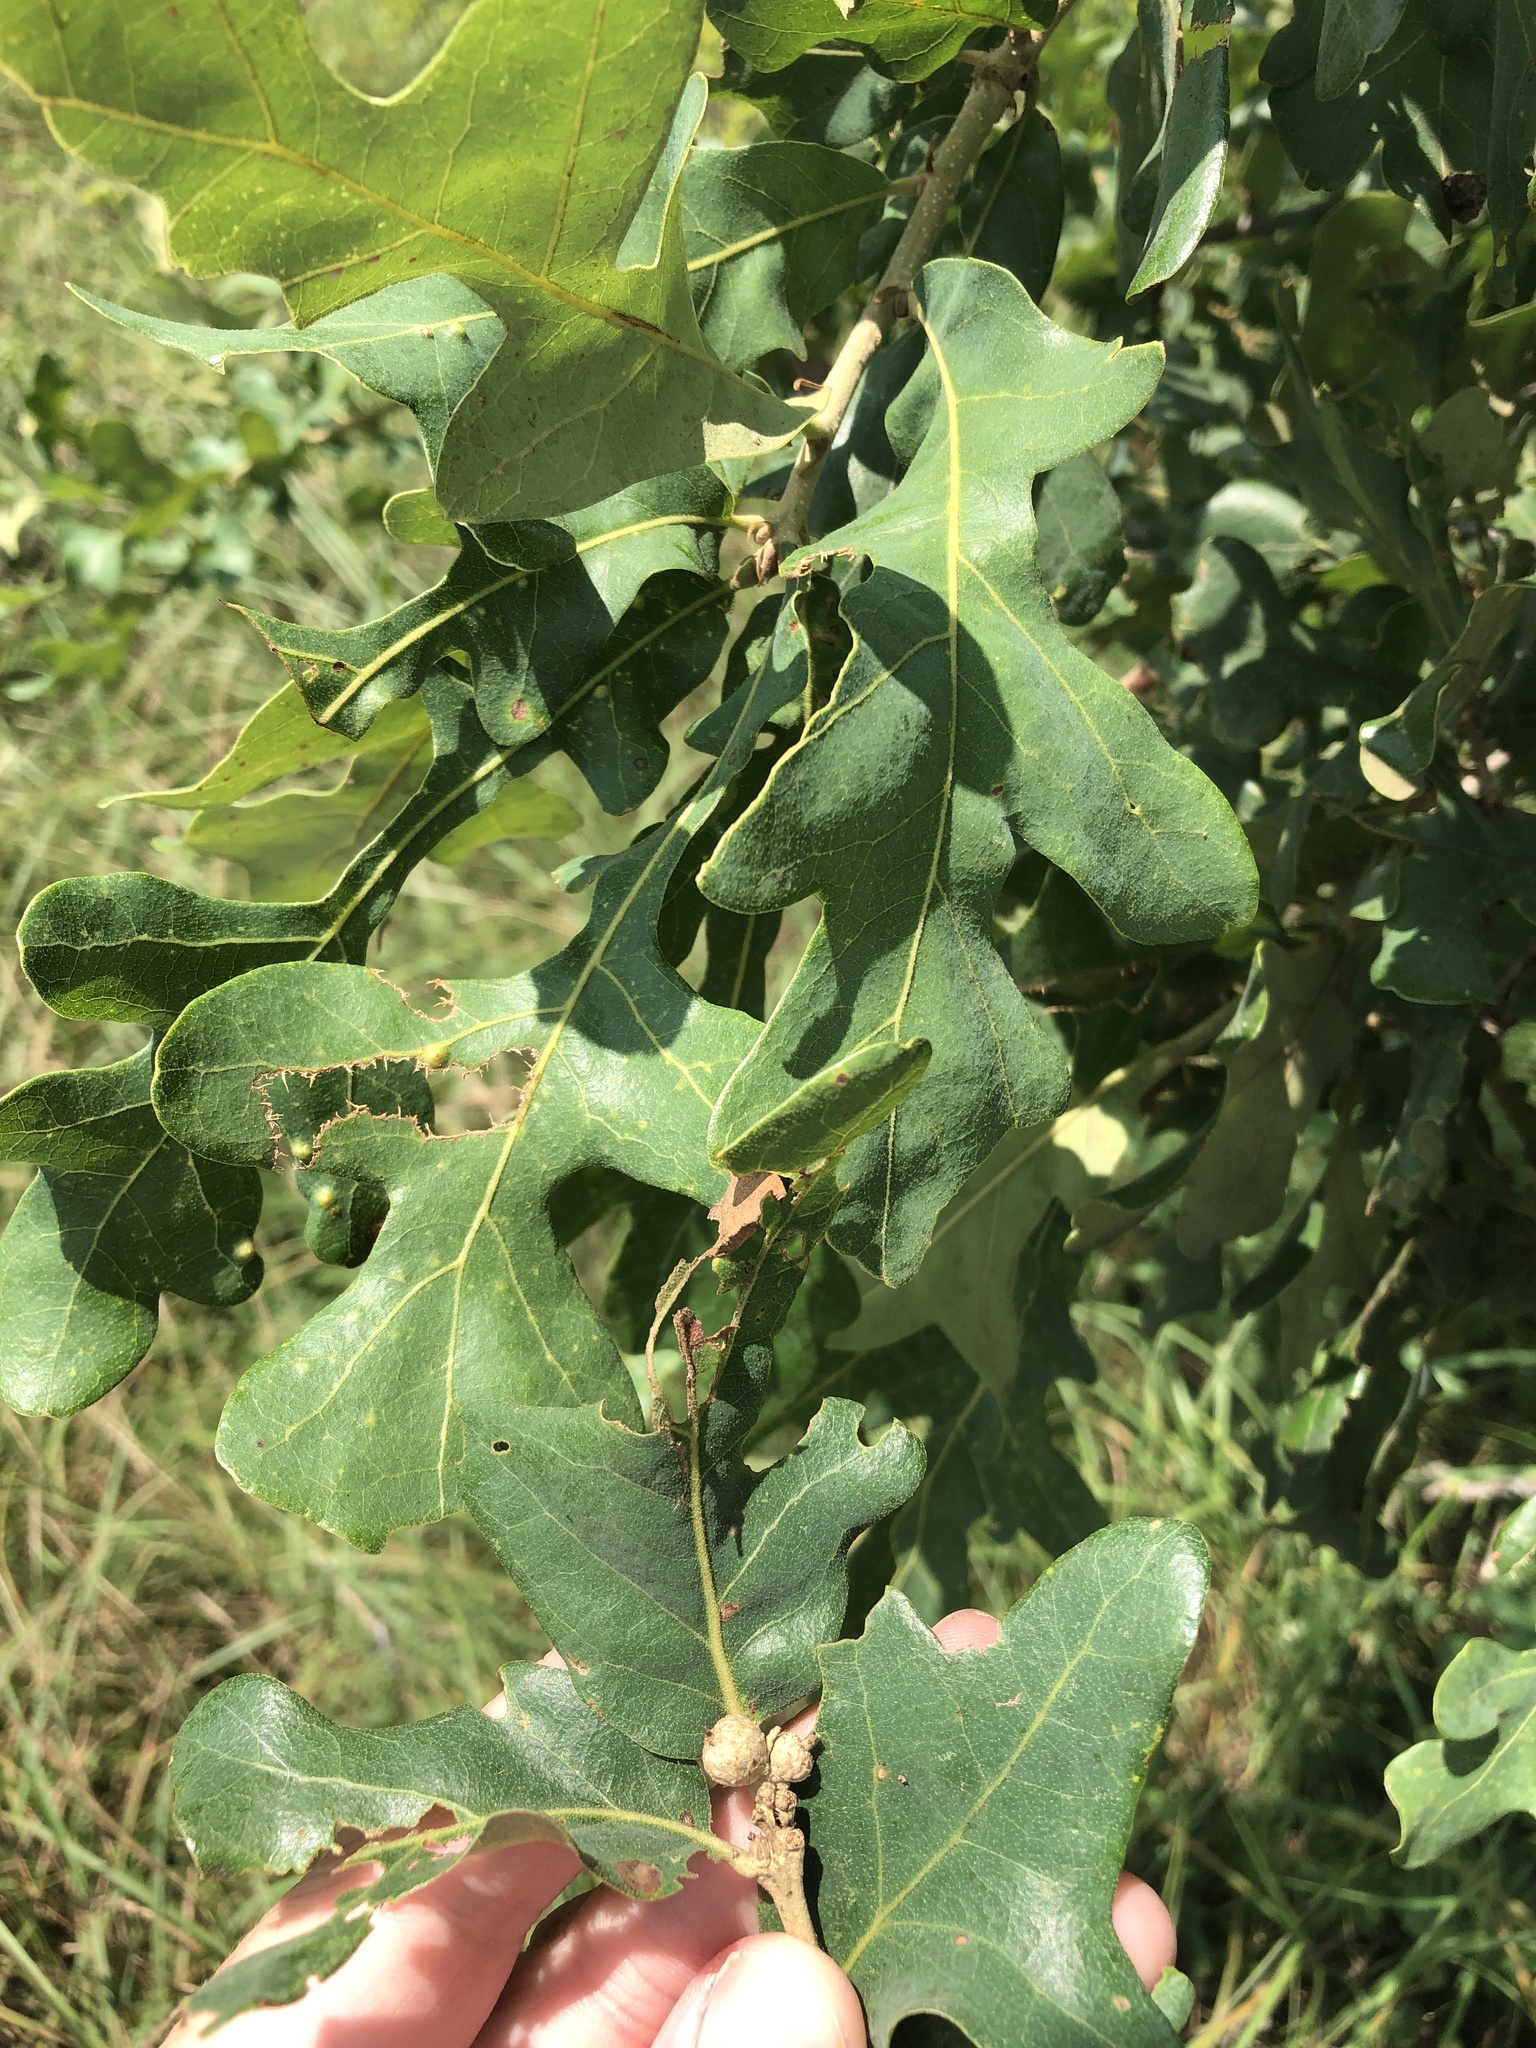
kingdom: Plantae
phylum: Tracheophyta
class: Magnoliopsida
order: Fagales
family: Fagaceae
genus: Quercus
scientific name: Quercus stellata
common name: Post oak
